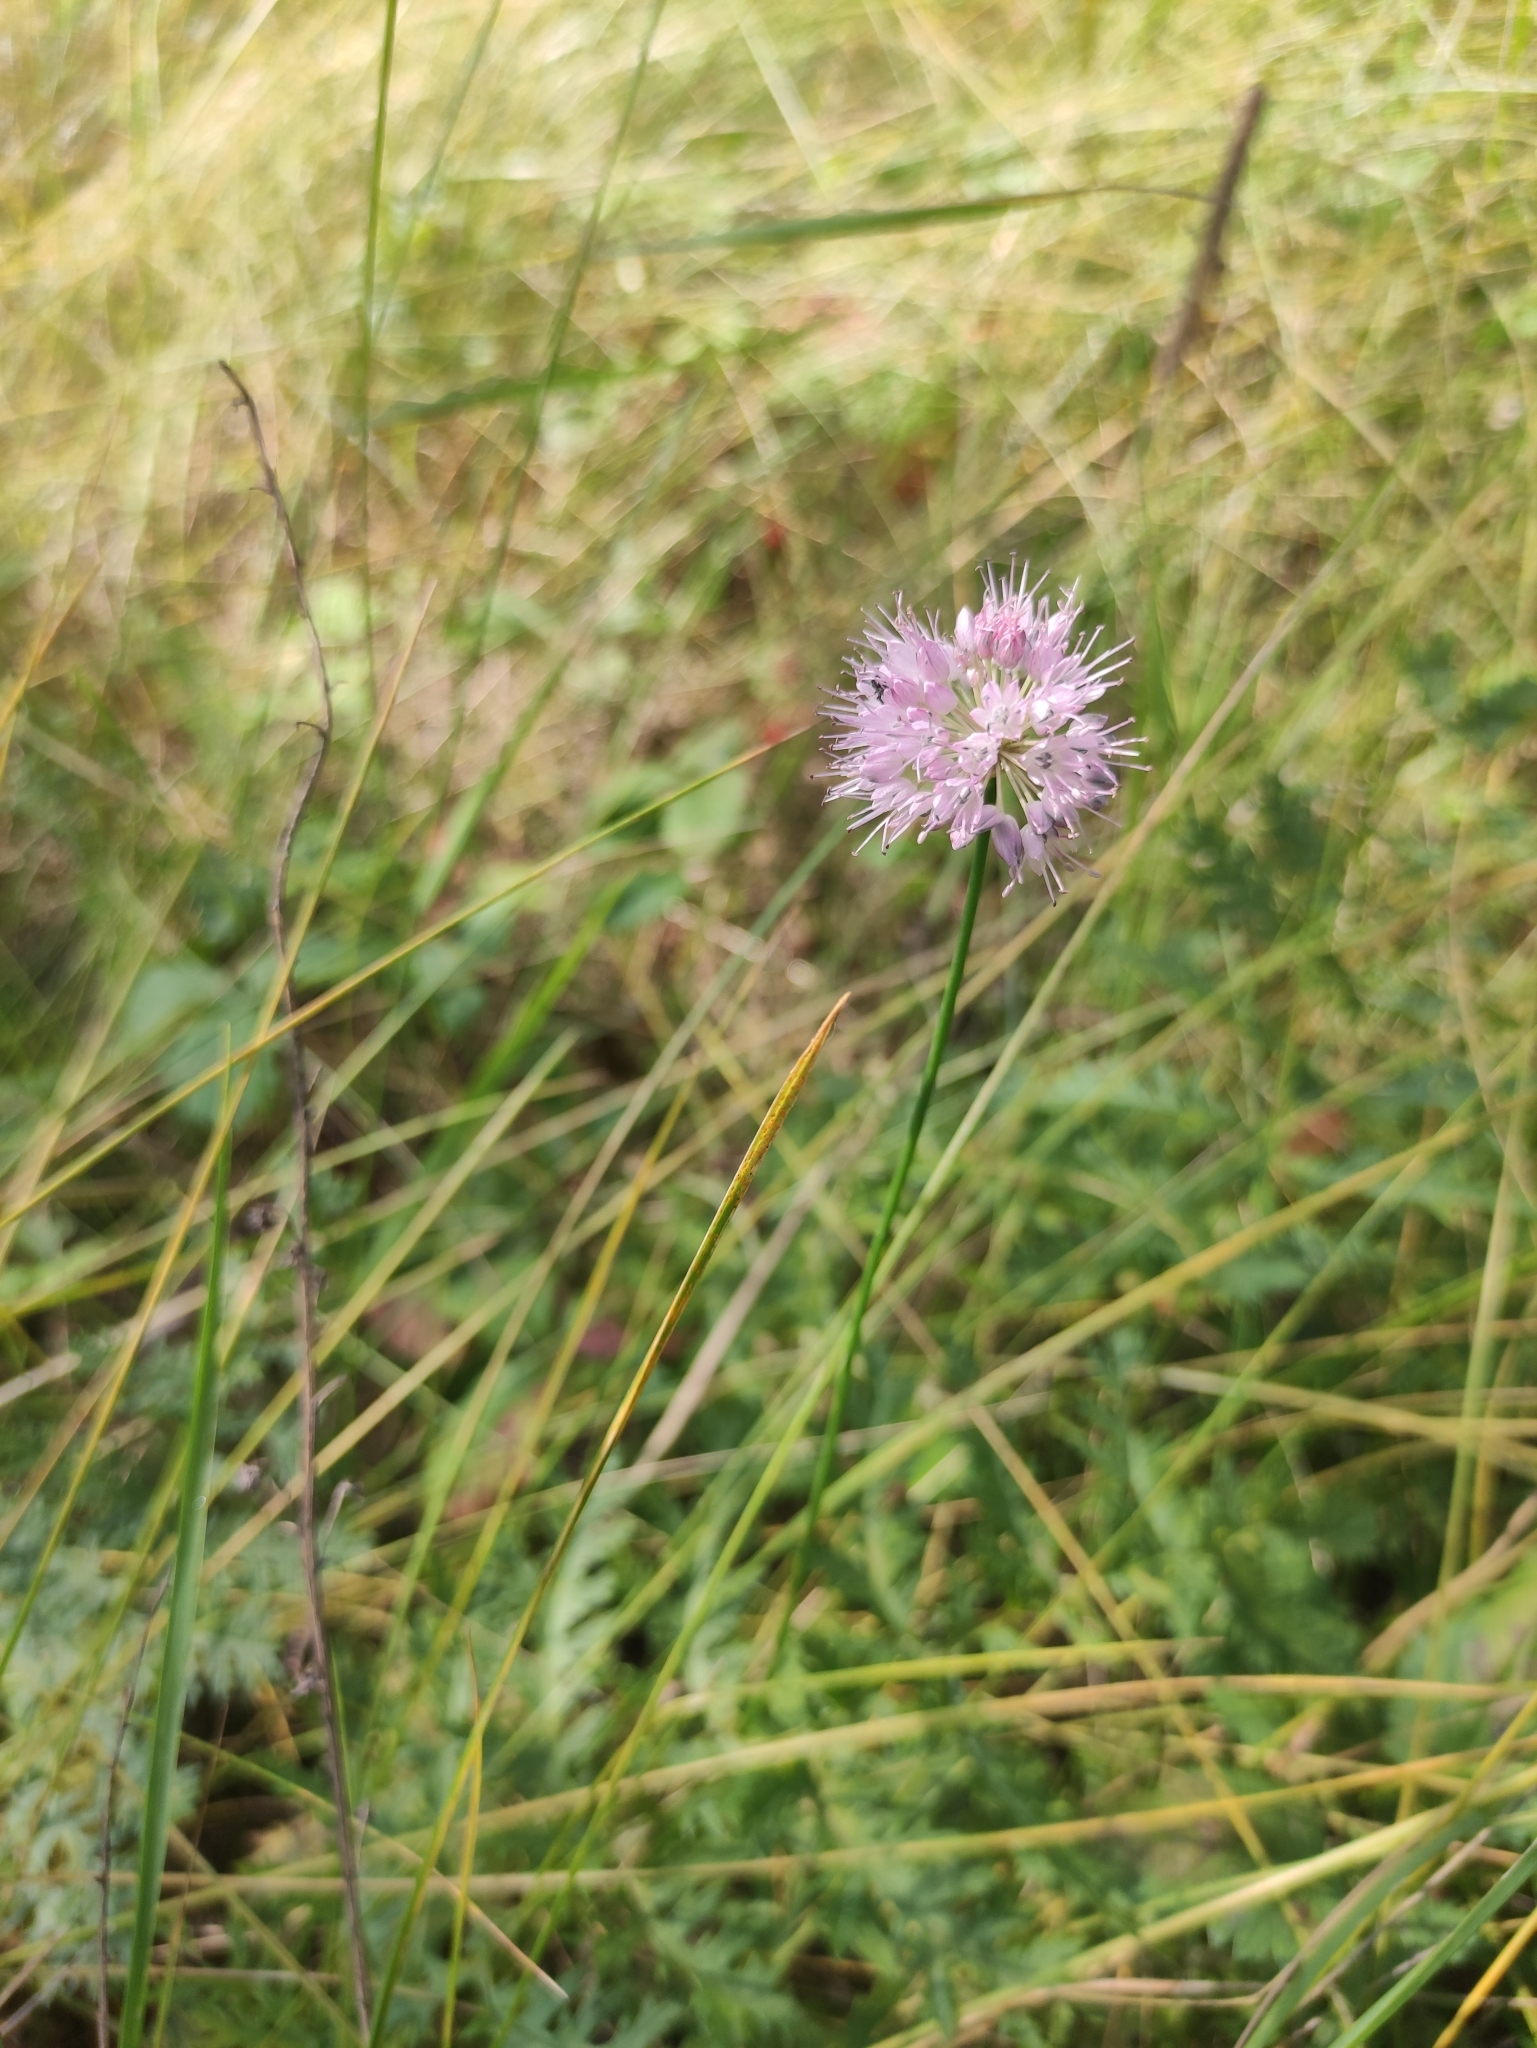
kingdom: Plantae
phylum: Tracheophyta
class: Liliopsida
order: Asparagales
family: Amaryllidaceae
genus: Allium
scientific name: Allium splendens
